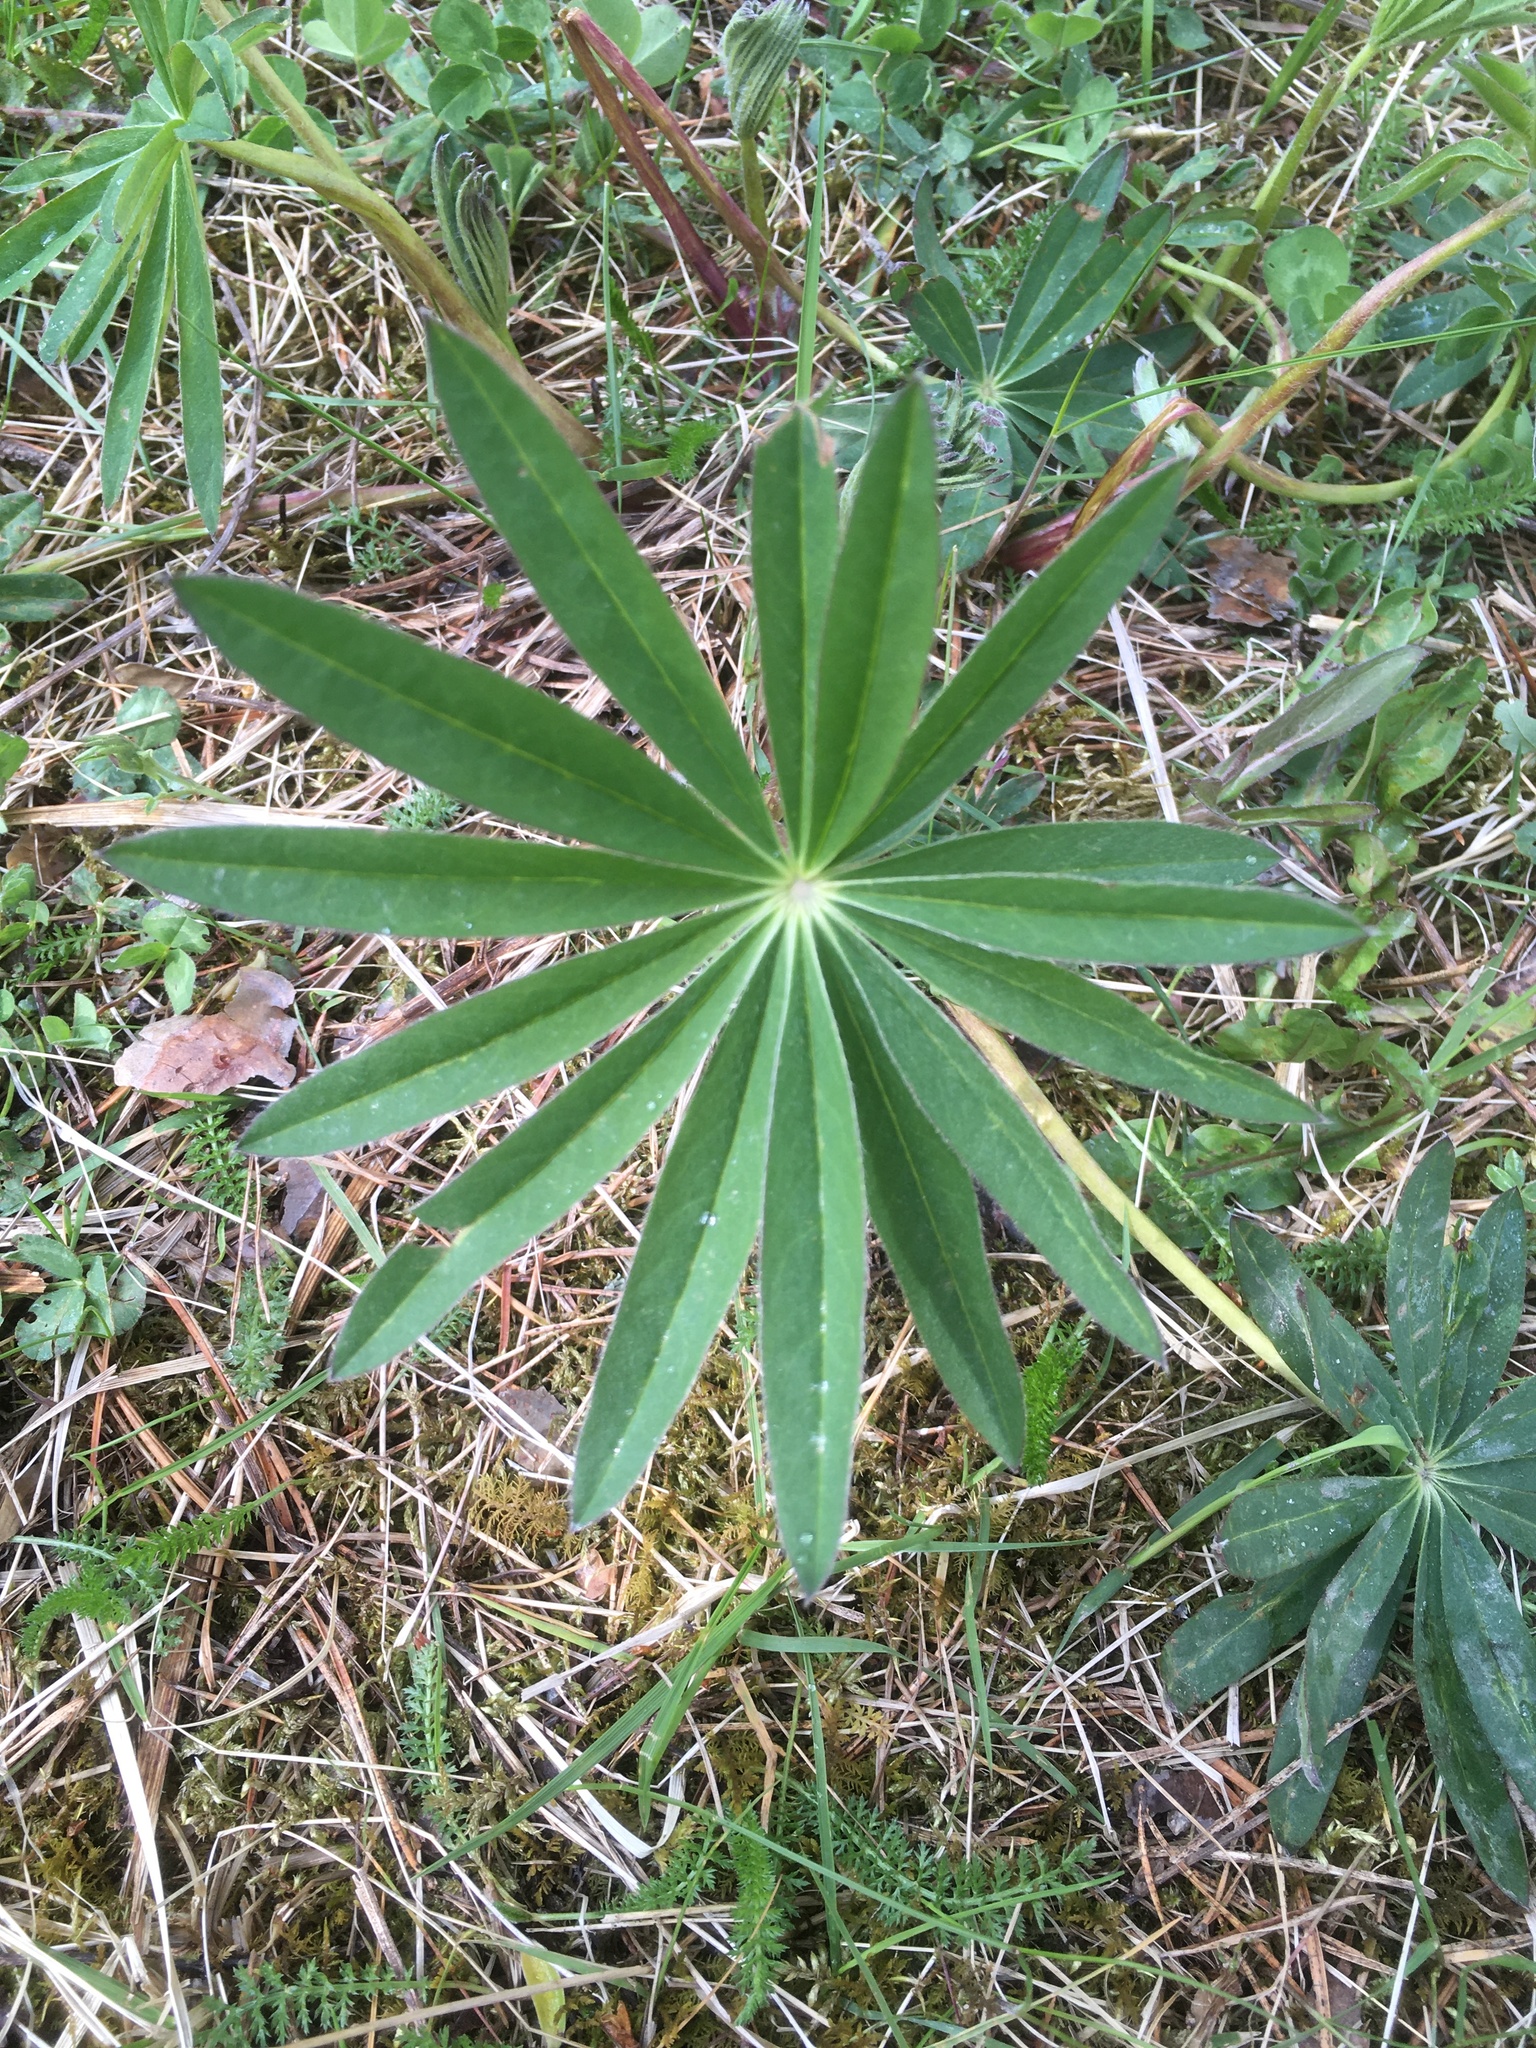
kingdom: Plantae
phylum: Tracheophyta
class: Magnoliopsida
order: Fabales
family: Fabaceae
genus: Lupinus
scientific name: Lupinus polyphyllus
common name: Garden lupin
